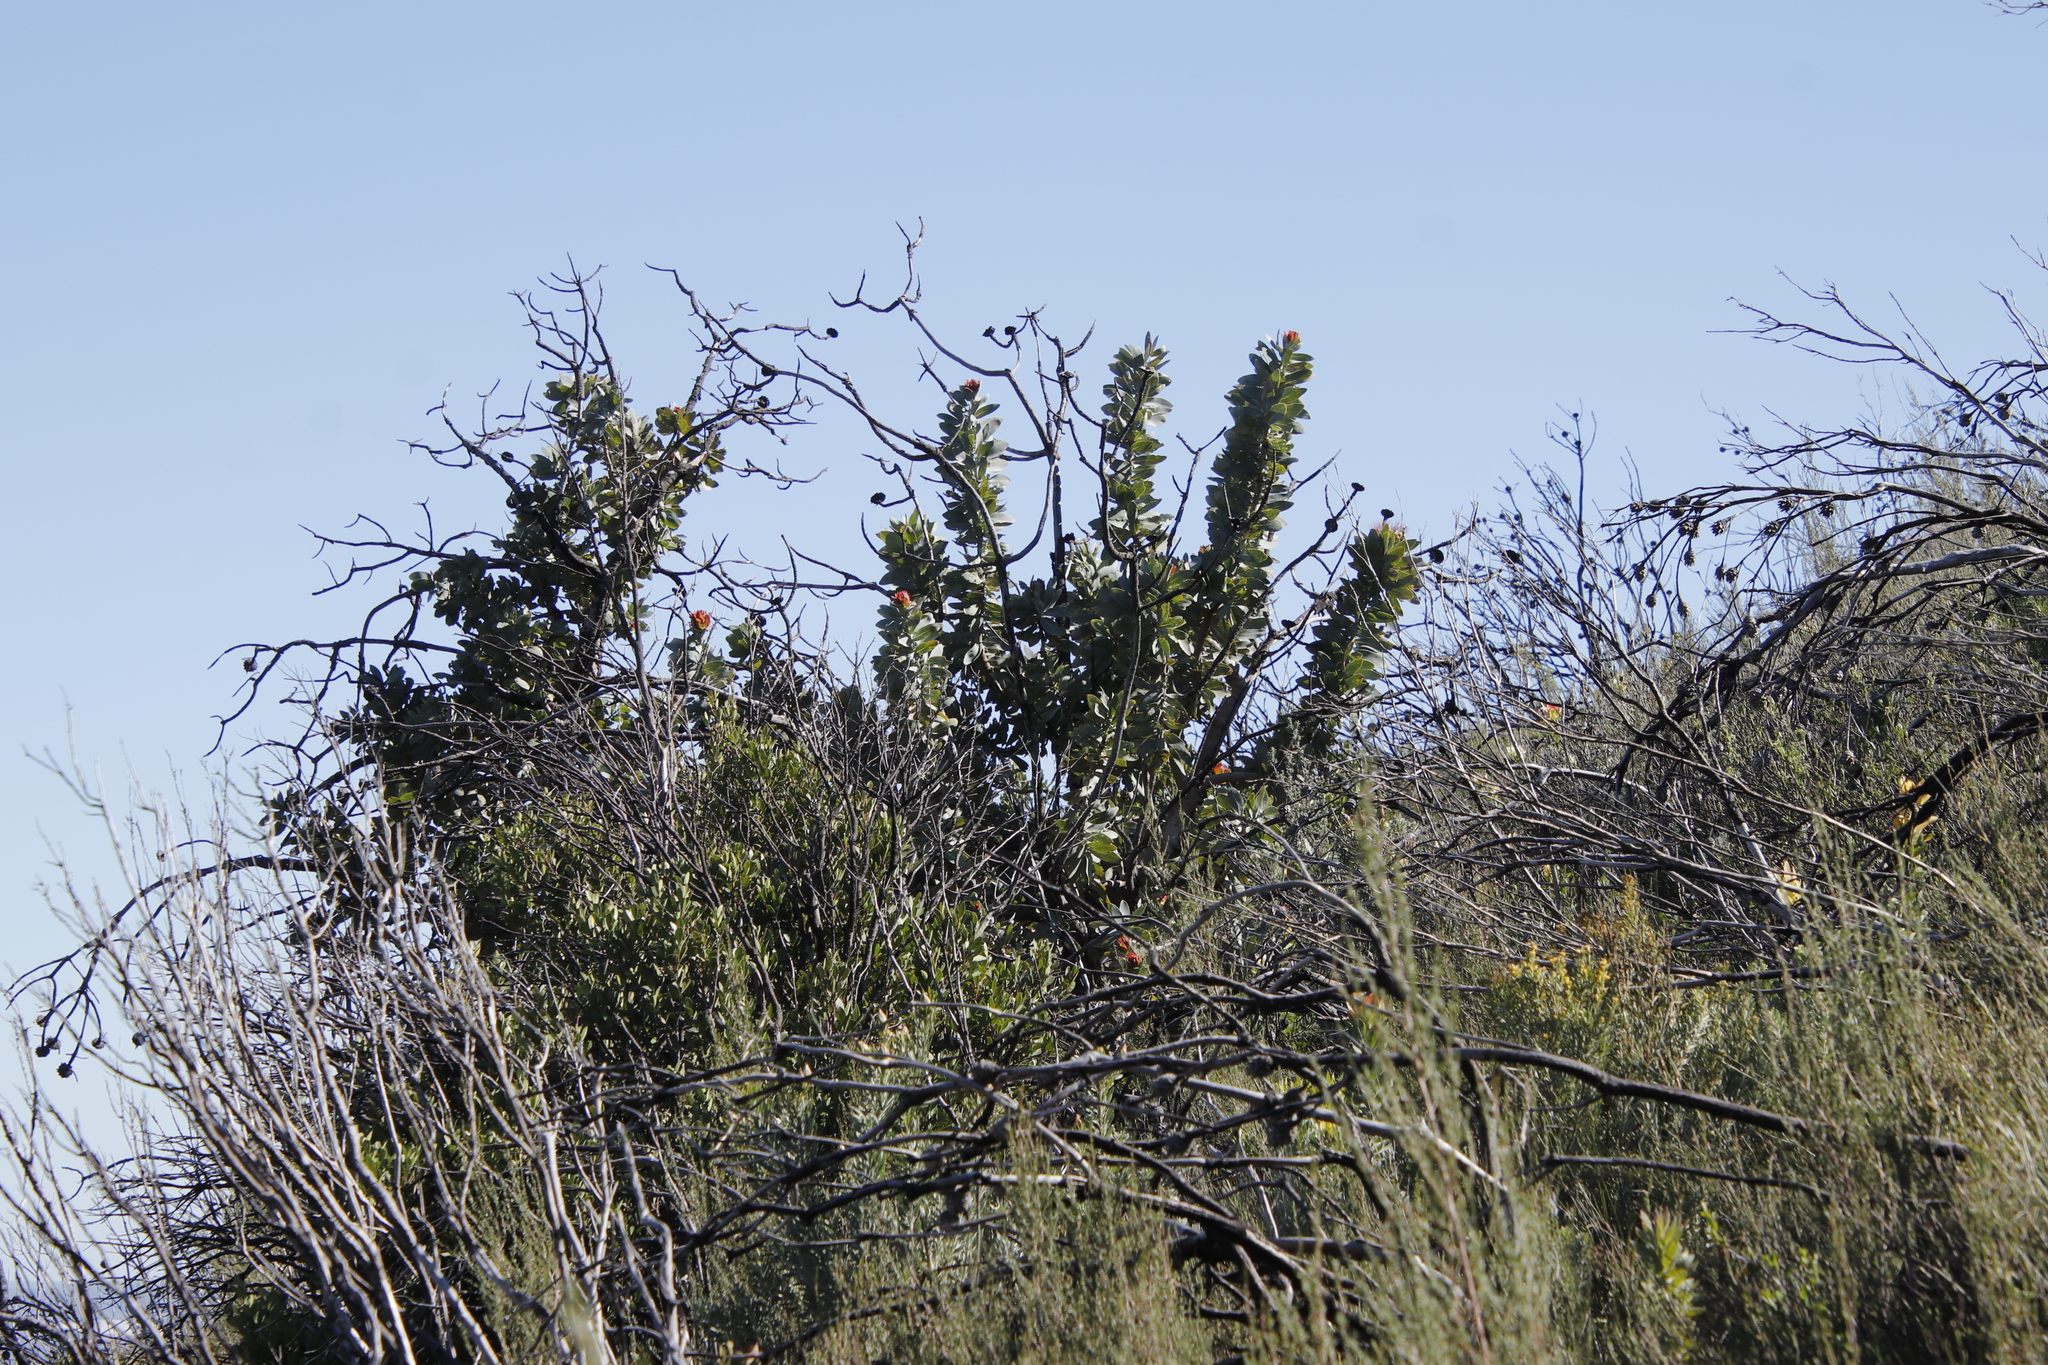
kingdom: Plantae
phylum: Tracheophyta
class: Magnoliopsida
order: Proteales
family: Proteaceae
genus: Protea
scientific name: Protea nitida
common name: Tree protea
